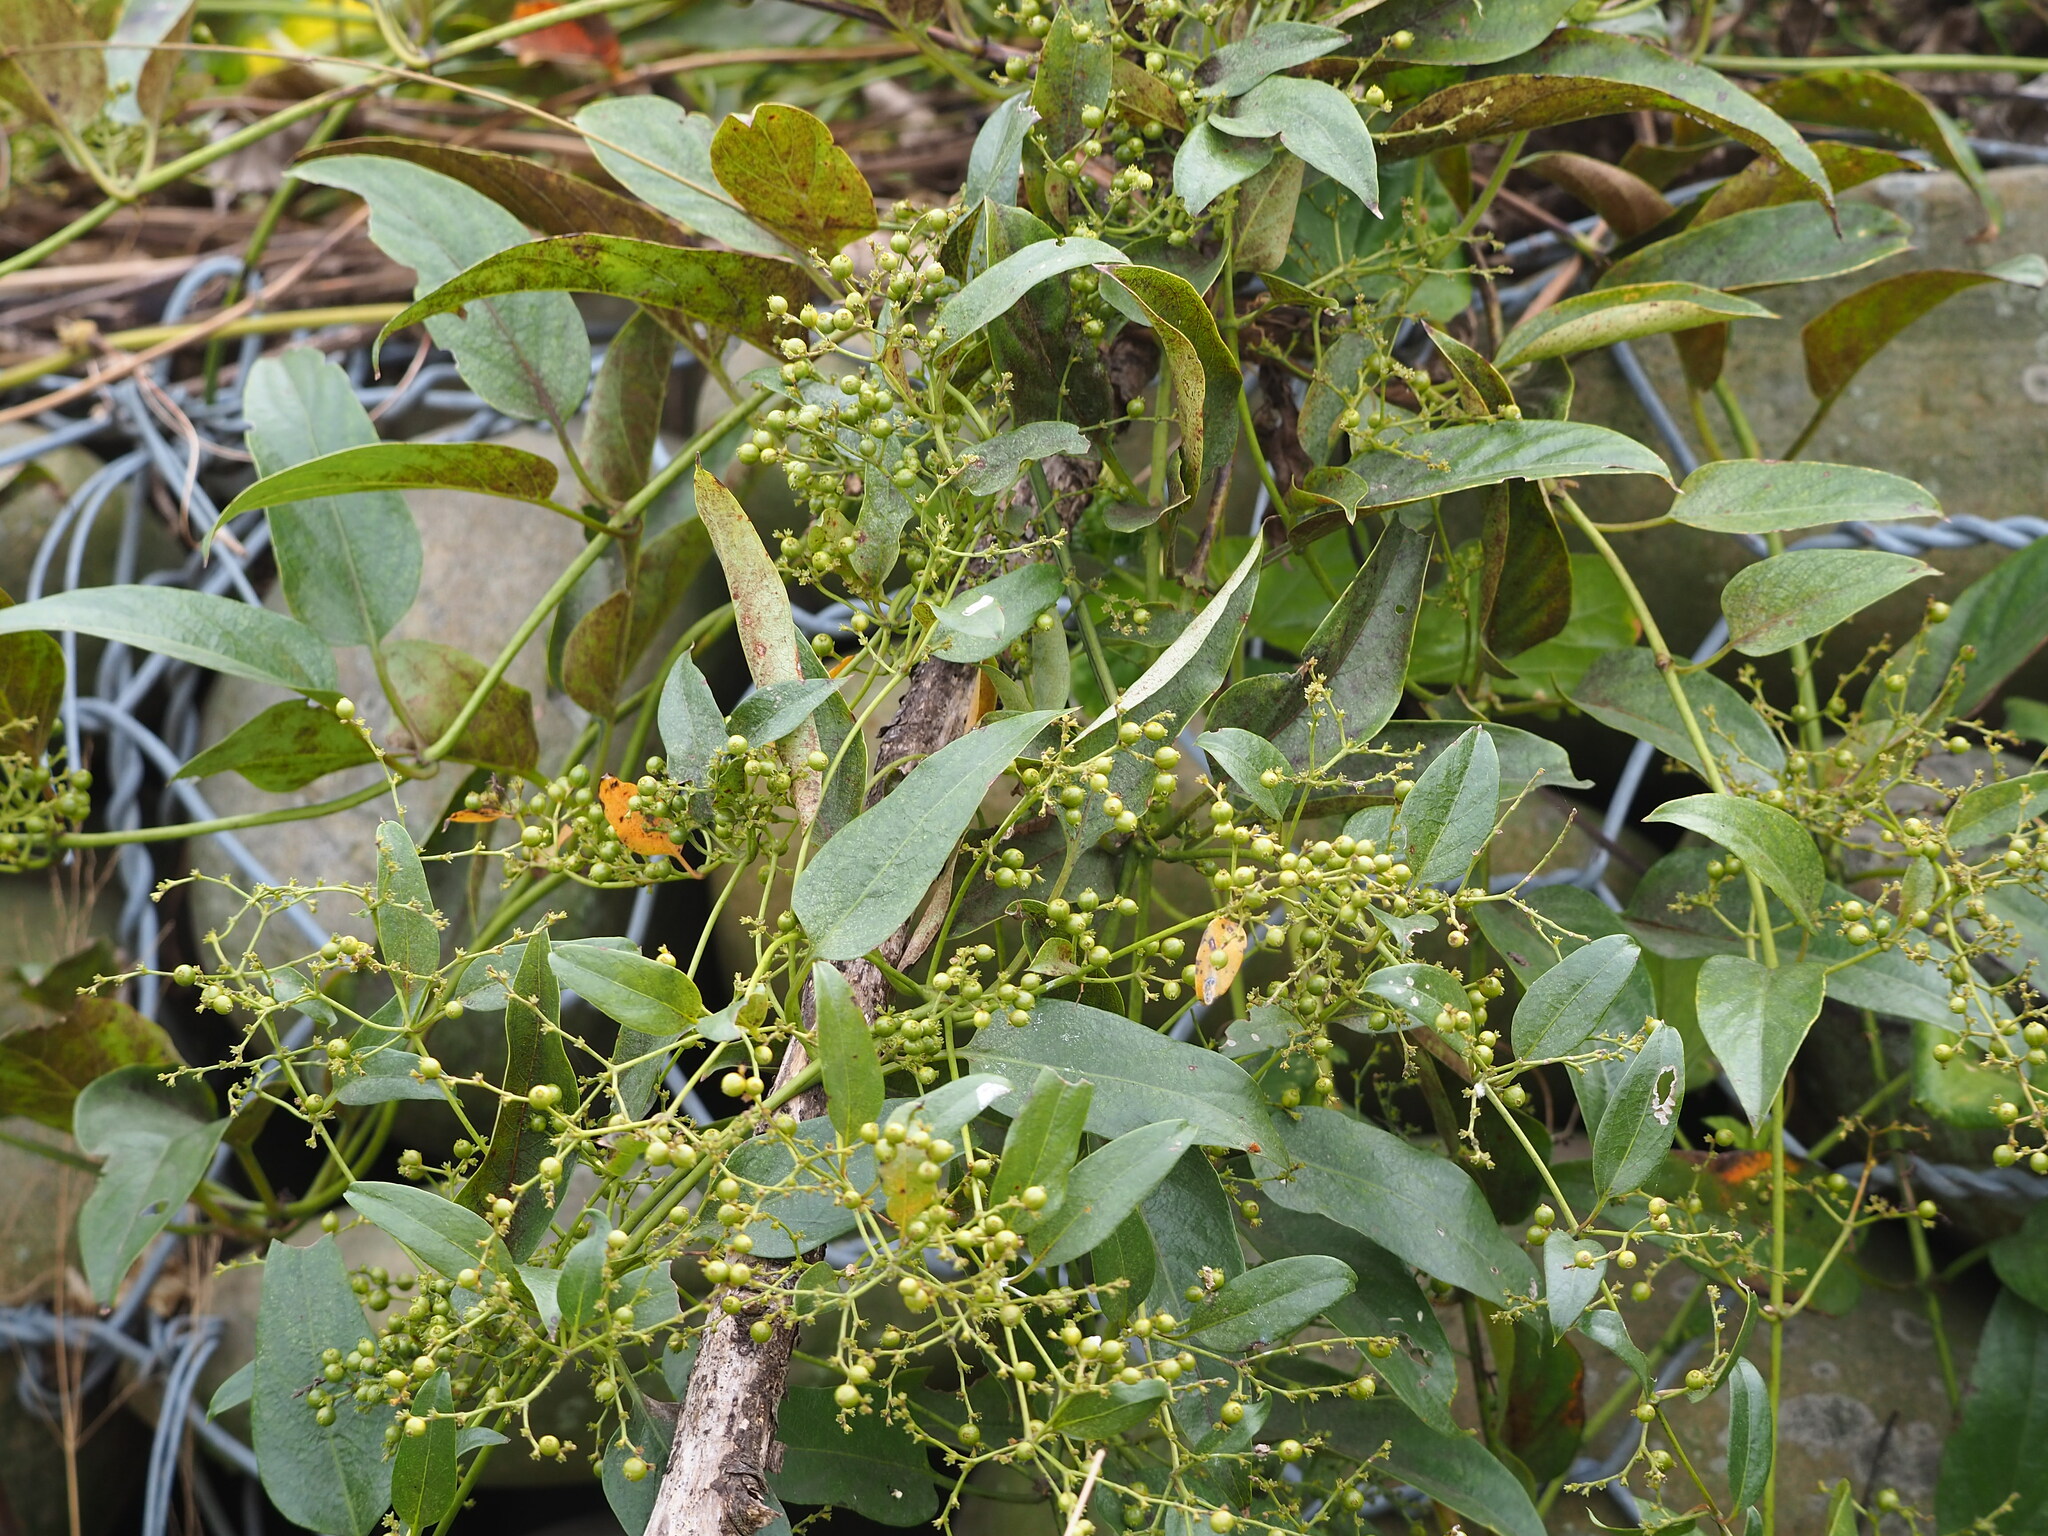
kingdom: Plantae
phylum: Tracheophyta
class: Magnoliopsida
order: Gentianales
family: Rubiaceae
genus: Paederia
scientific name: Paederia foetida
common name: Stinkvine
